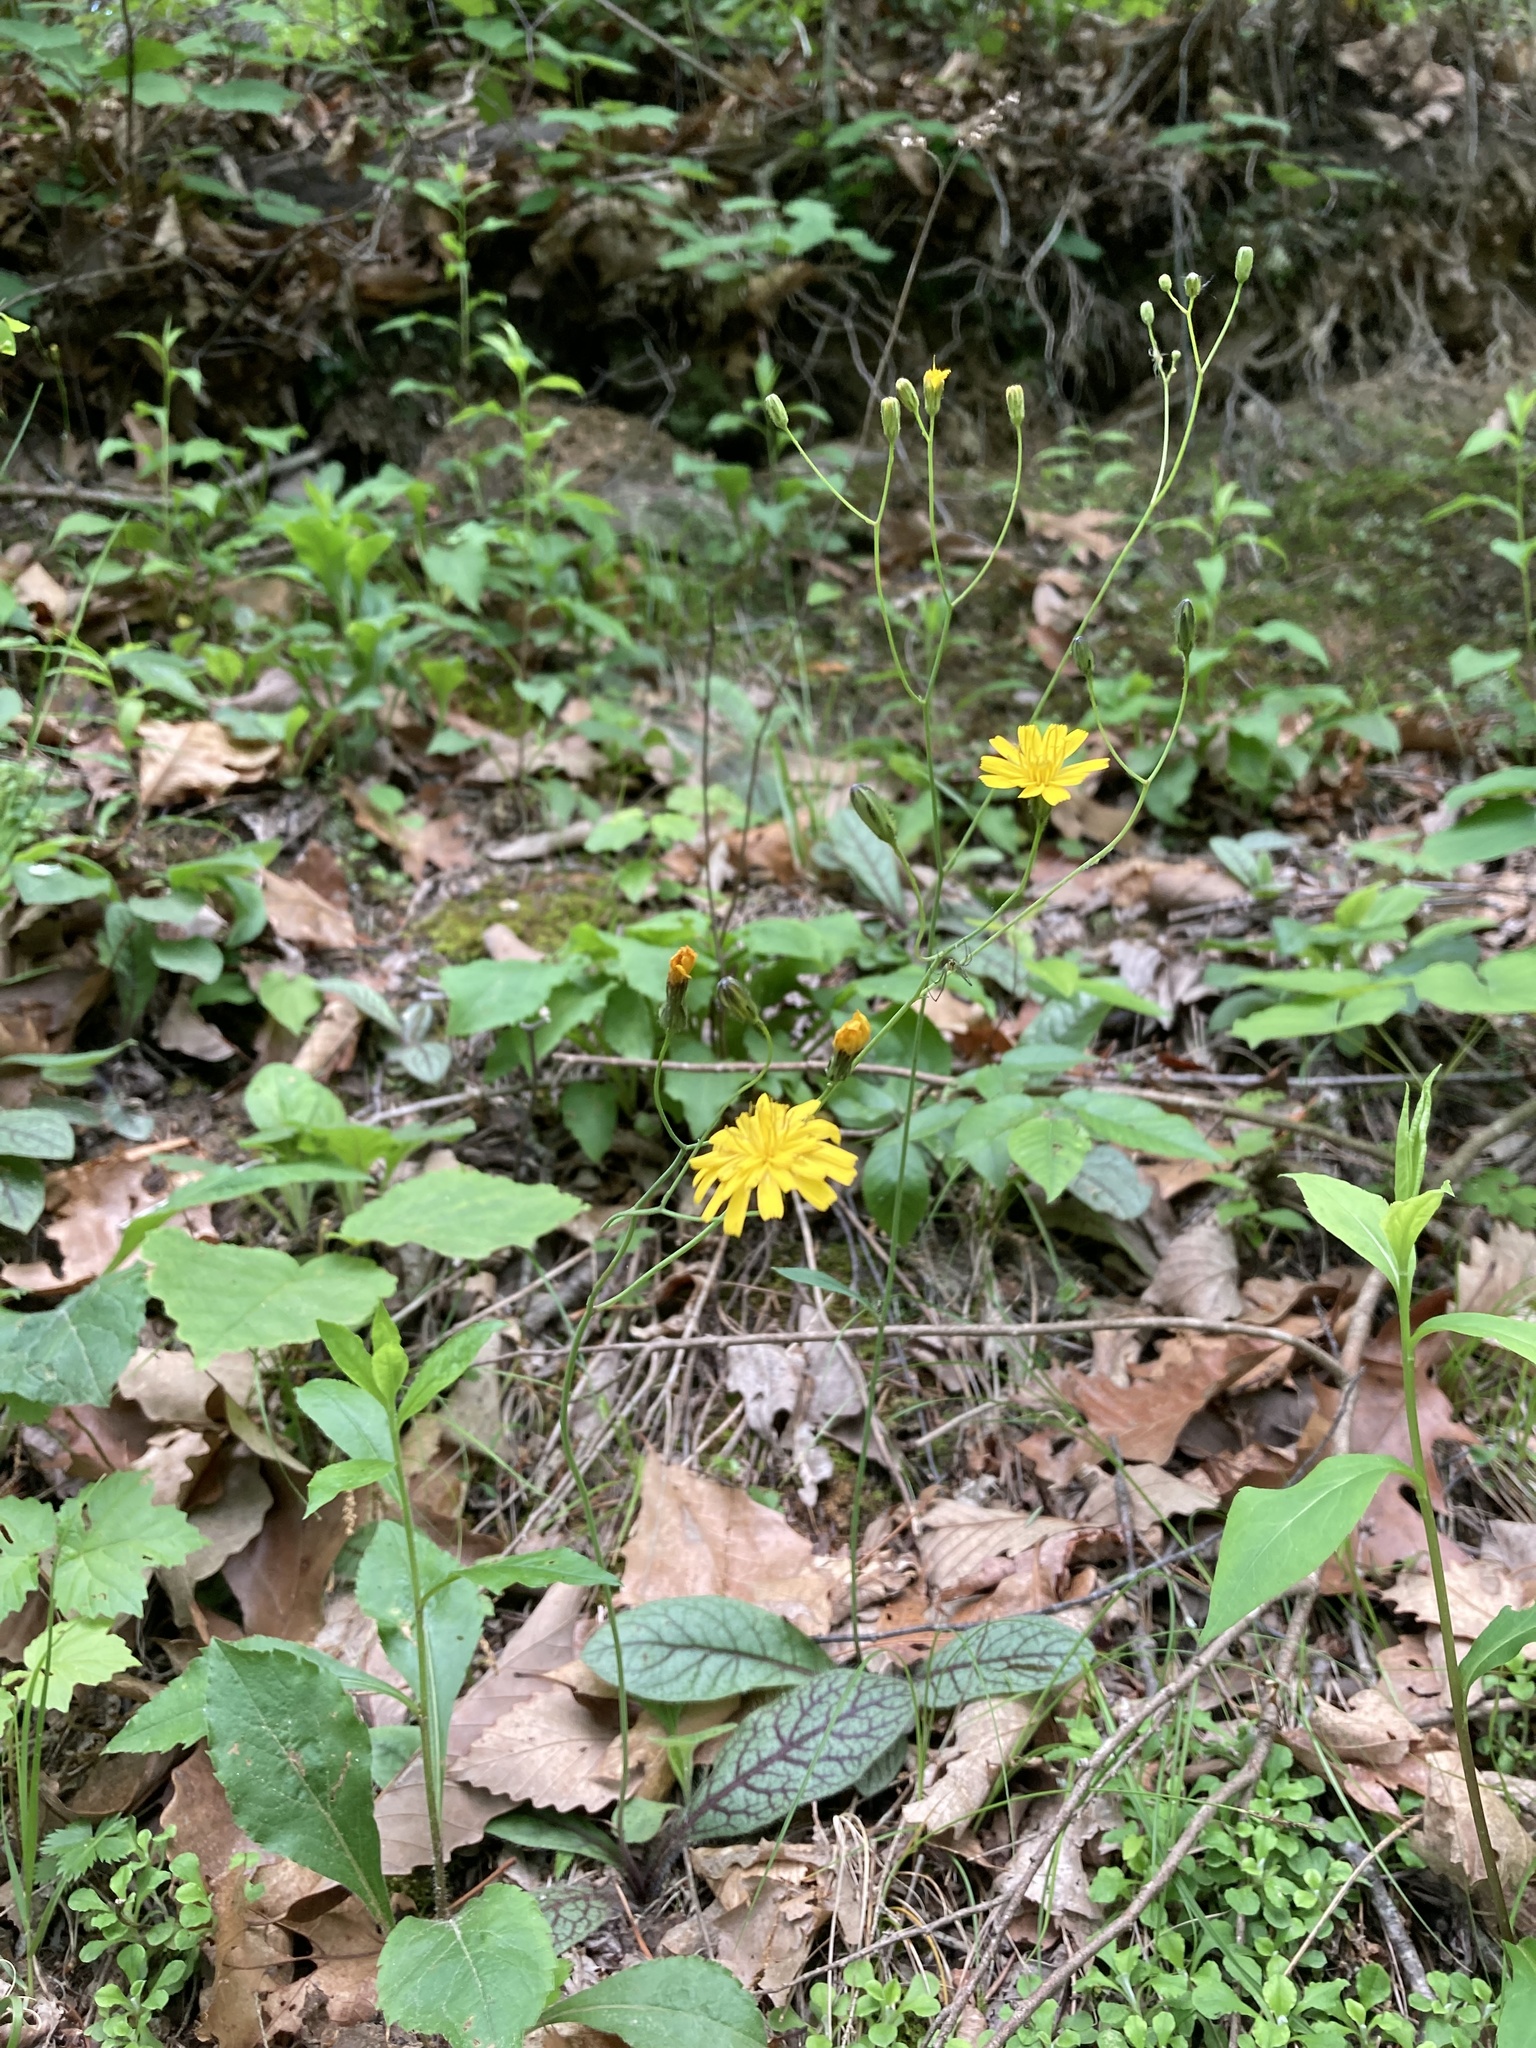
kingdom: Plantae
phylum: Tracheophyta
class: Magnoliopsida
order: Asterales
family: Asteraceae
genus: Hieracium
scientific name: Hieracium venosum
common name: Rattlesnake hawkweed
